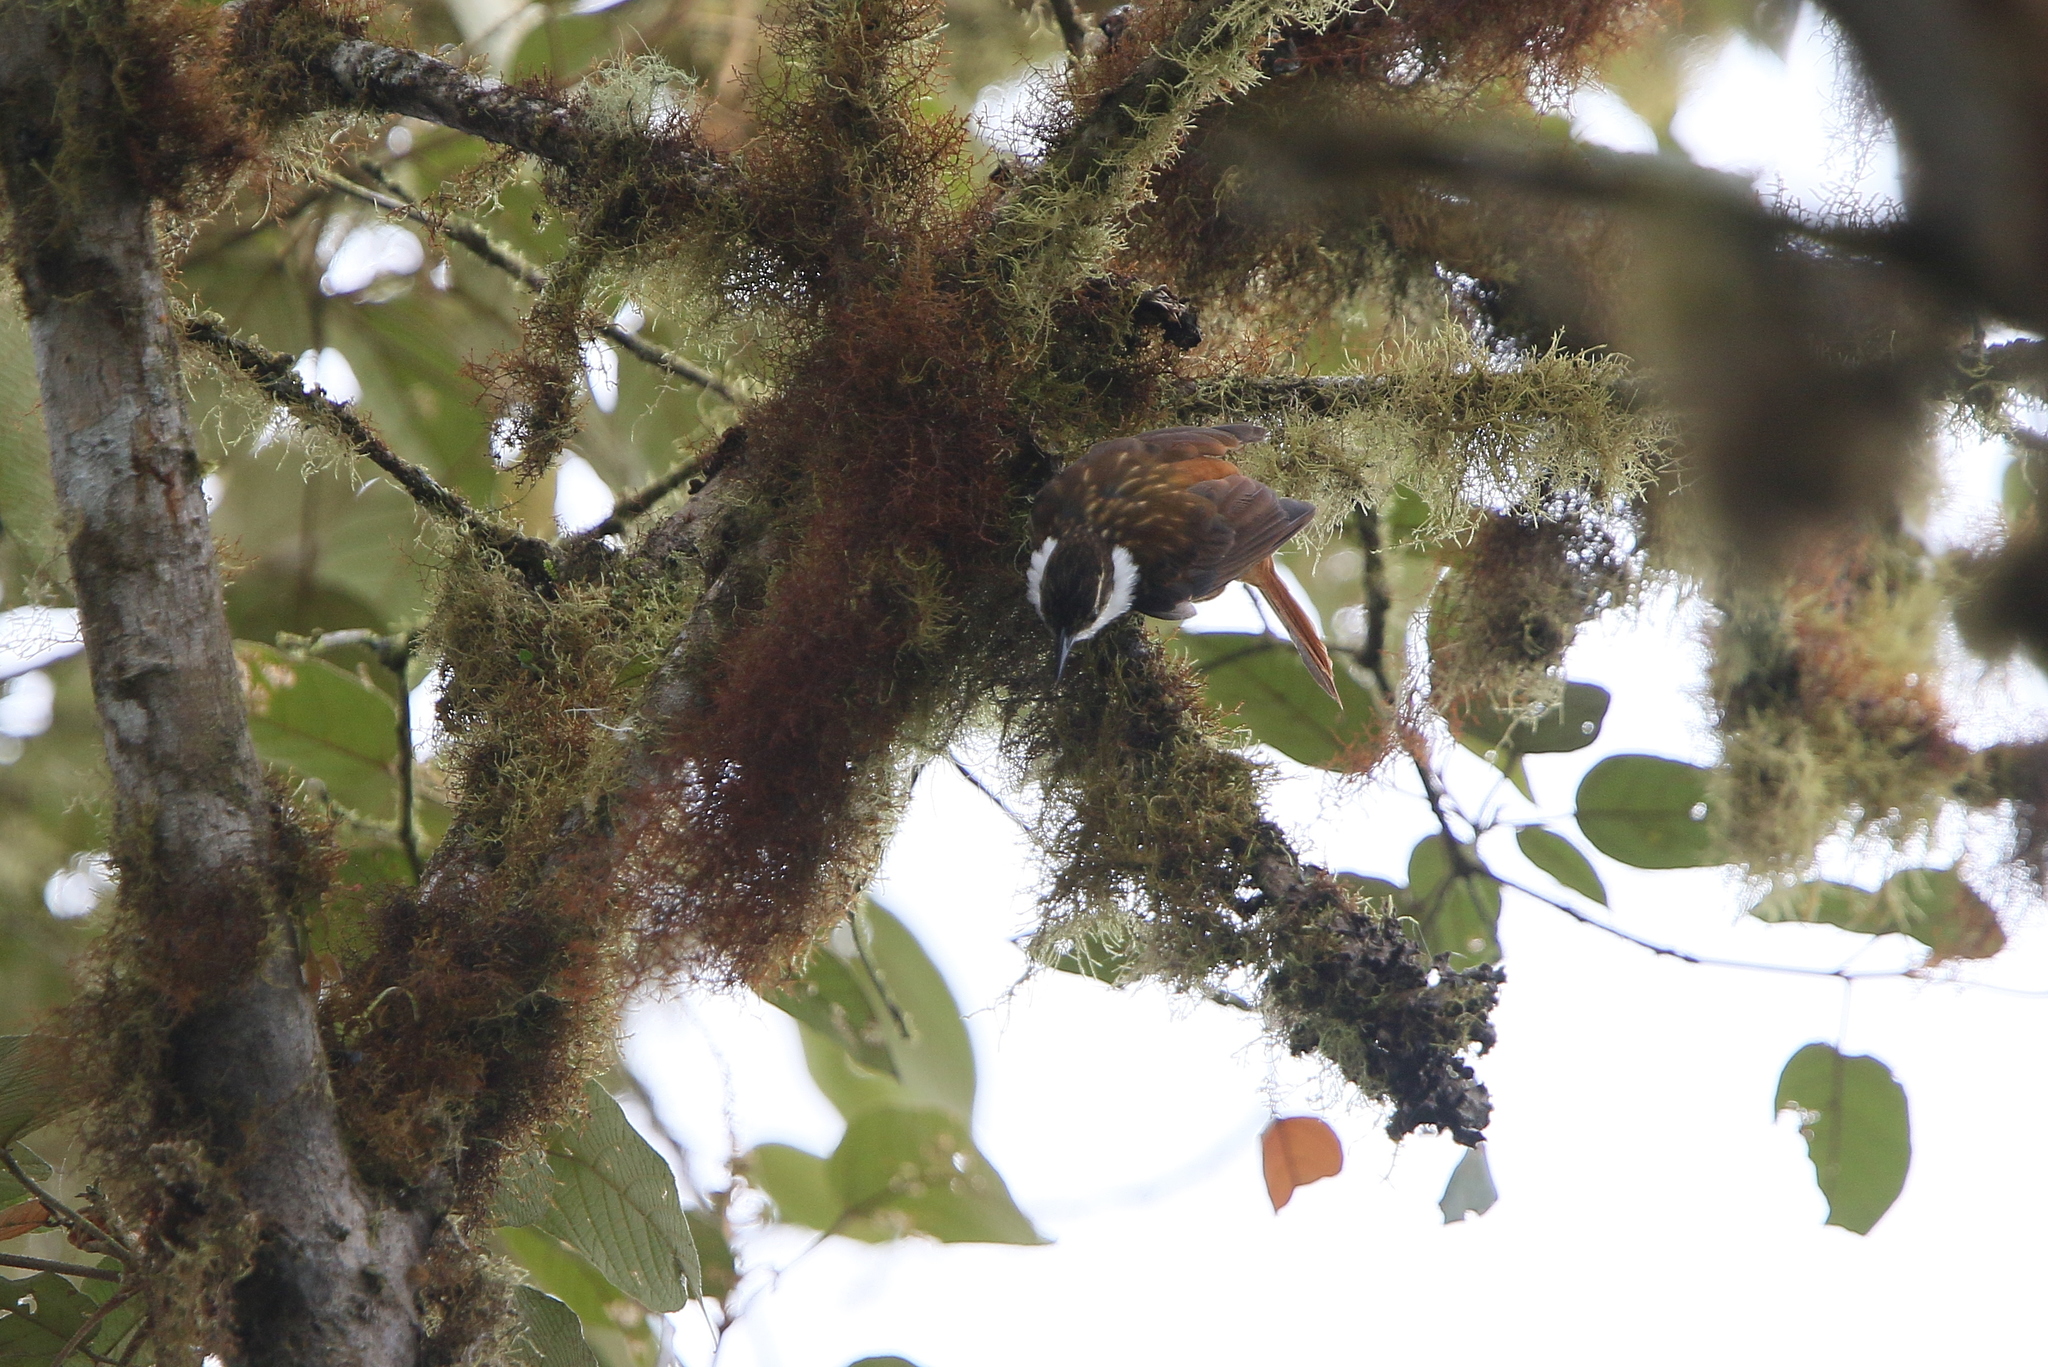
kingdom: Animalia
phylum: Chordata
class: Aves
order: Passeriformes
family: Furnariidae
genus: Pseudocolaptes
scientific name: Pseudocolaptes boissonneautii
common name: Streaked tuftedcheek
